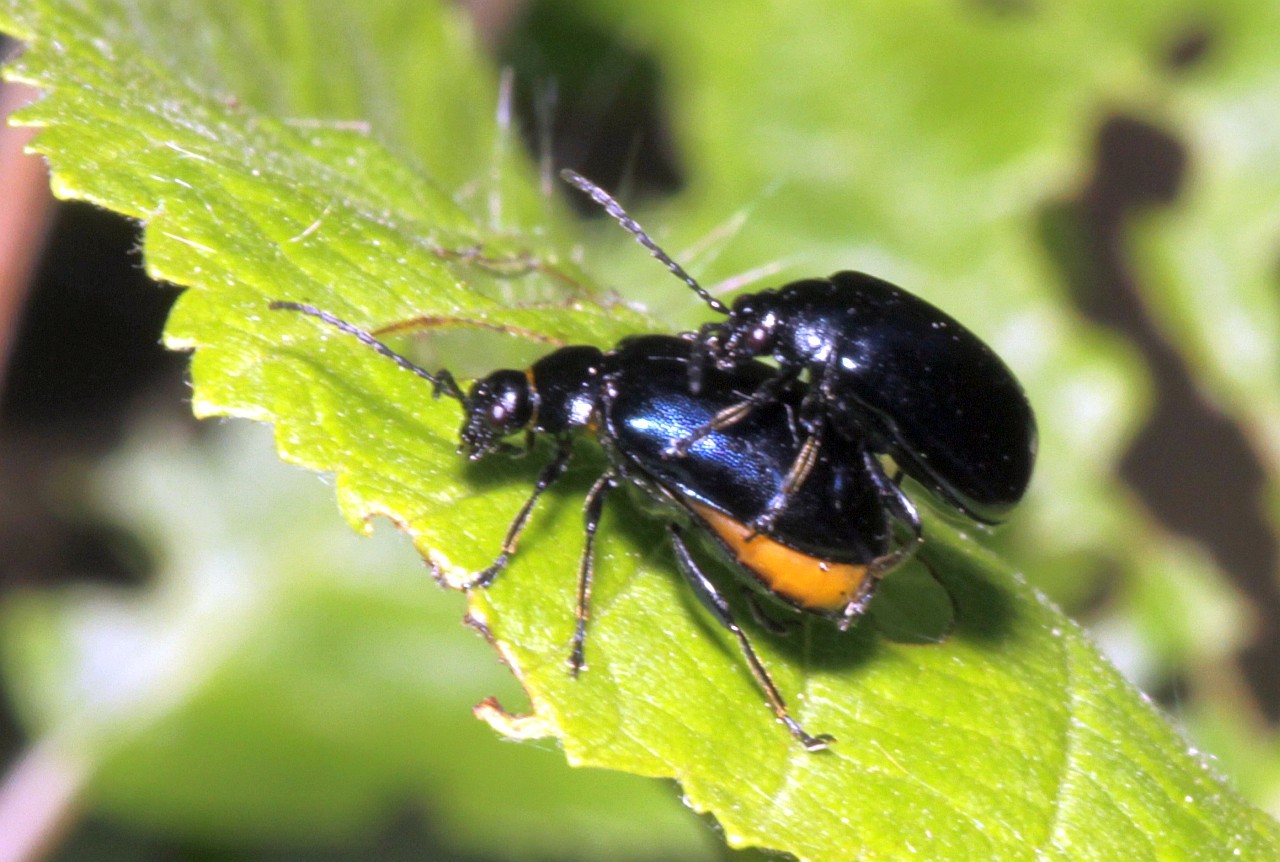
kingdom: Animalia
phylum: Arthropoda
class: Insecta
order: Coleoptera
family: Chrysomelidae
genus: Agelastica
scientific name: Agelastica alni
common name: Alder leaf beetle
